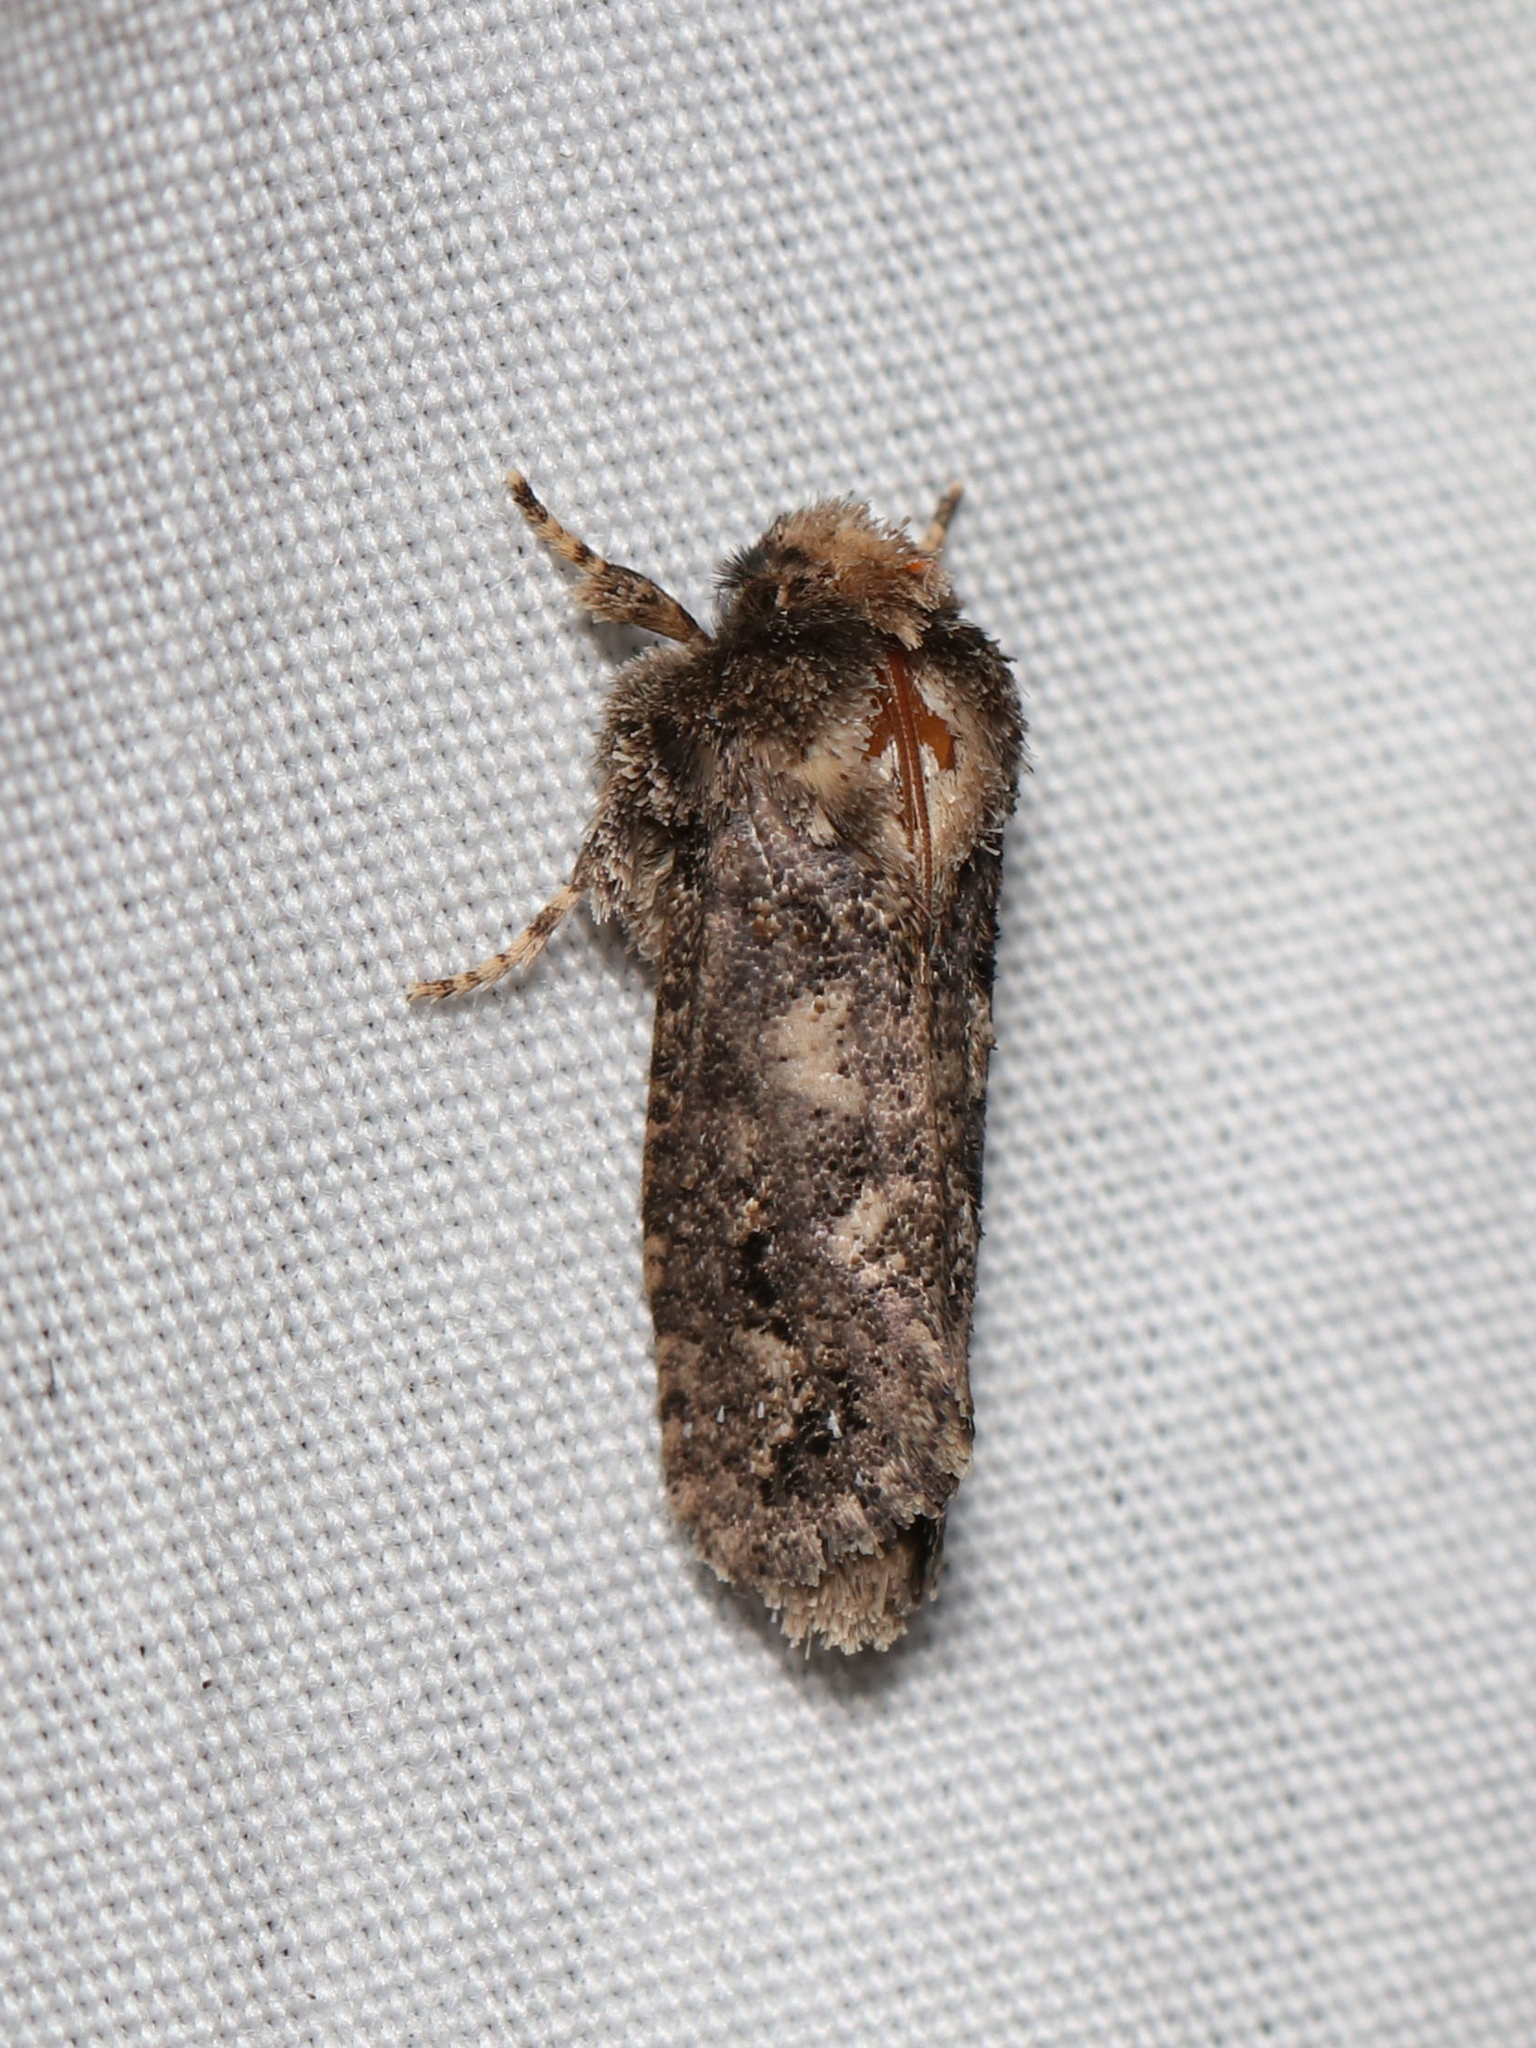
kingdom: Animalia
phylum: Arthropoda
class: Insecta
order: Lepidoptera
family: Tineidae
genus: Acrolophus
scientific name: Acrolophus arcanella
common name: Arcane grass tubeworm moth
